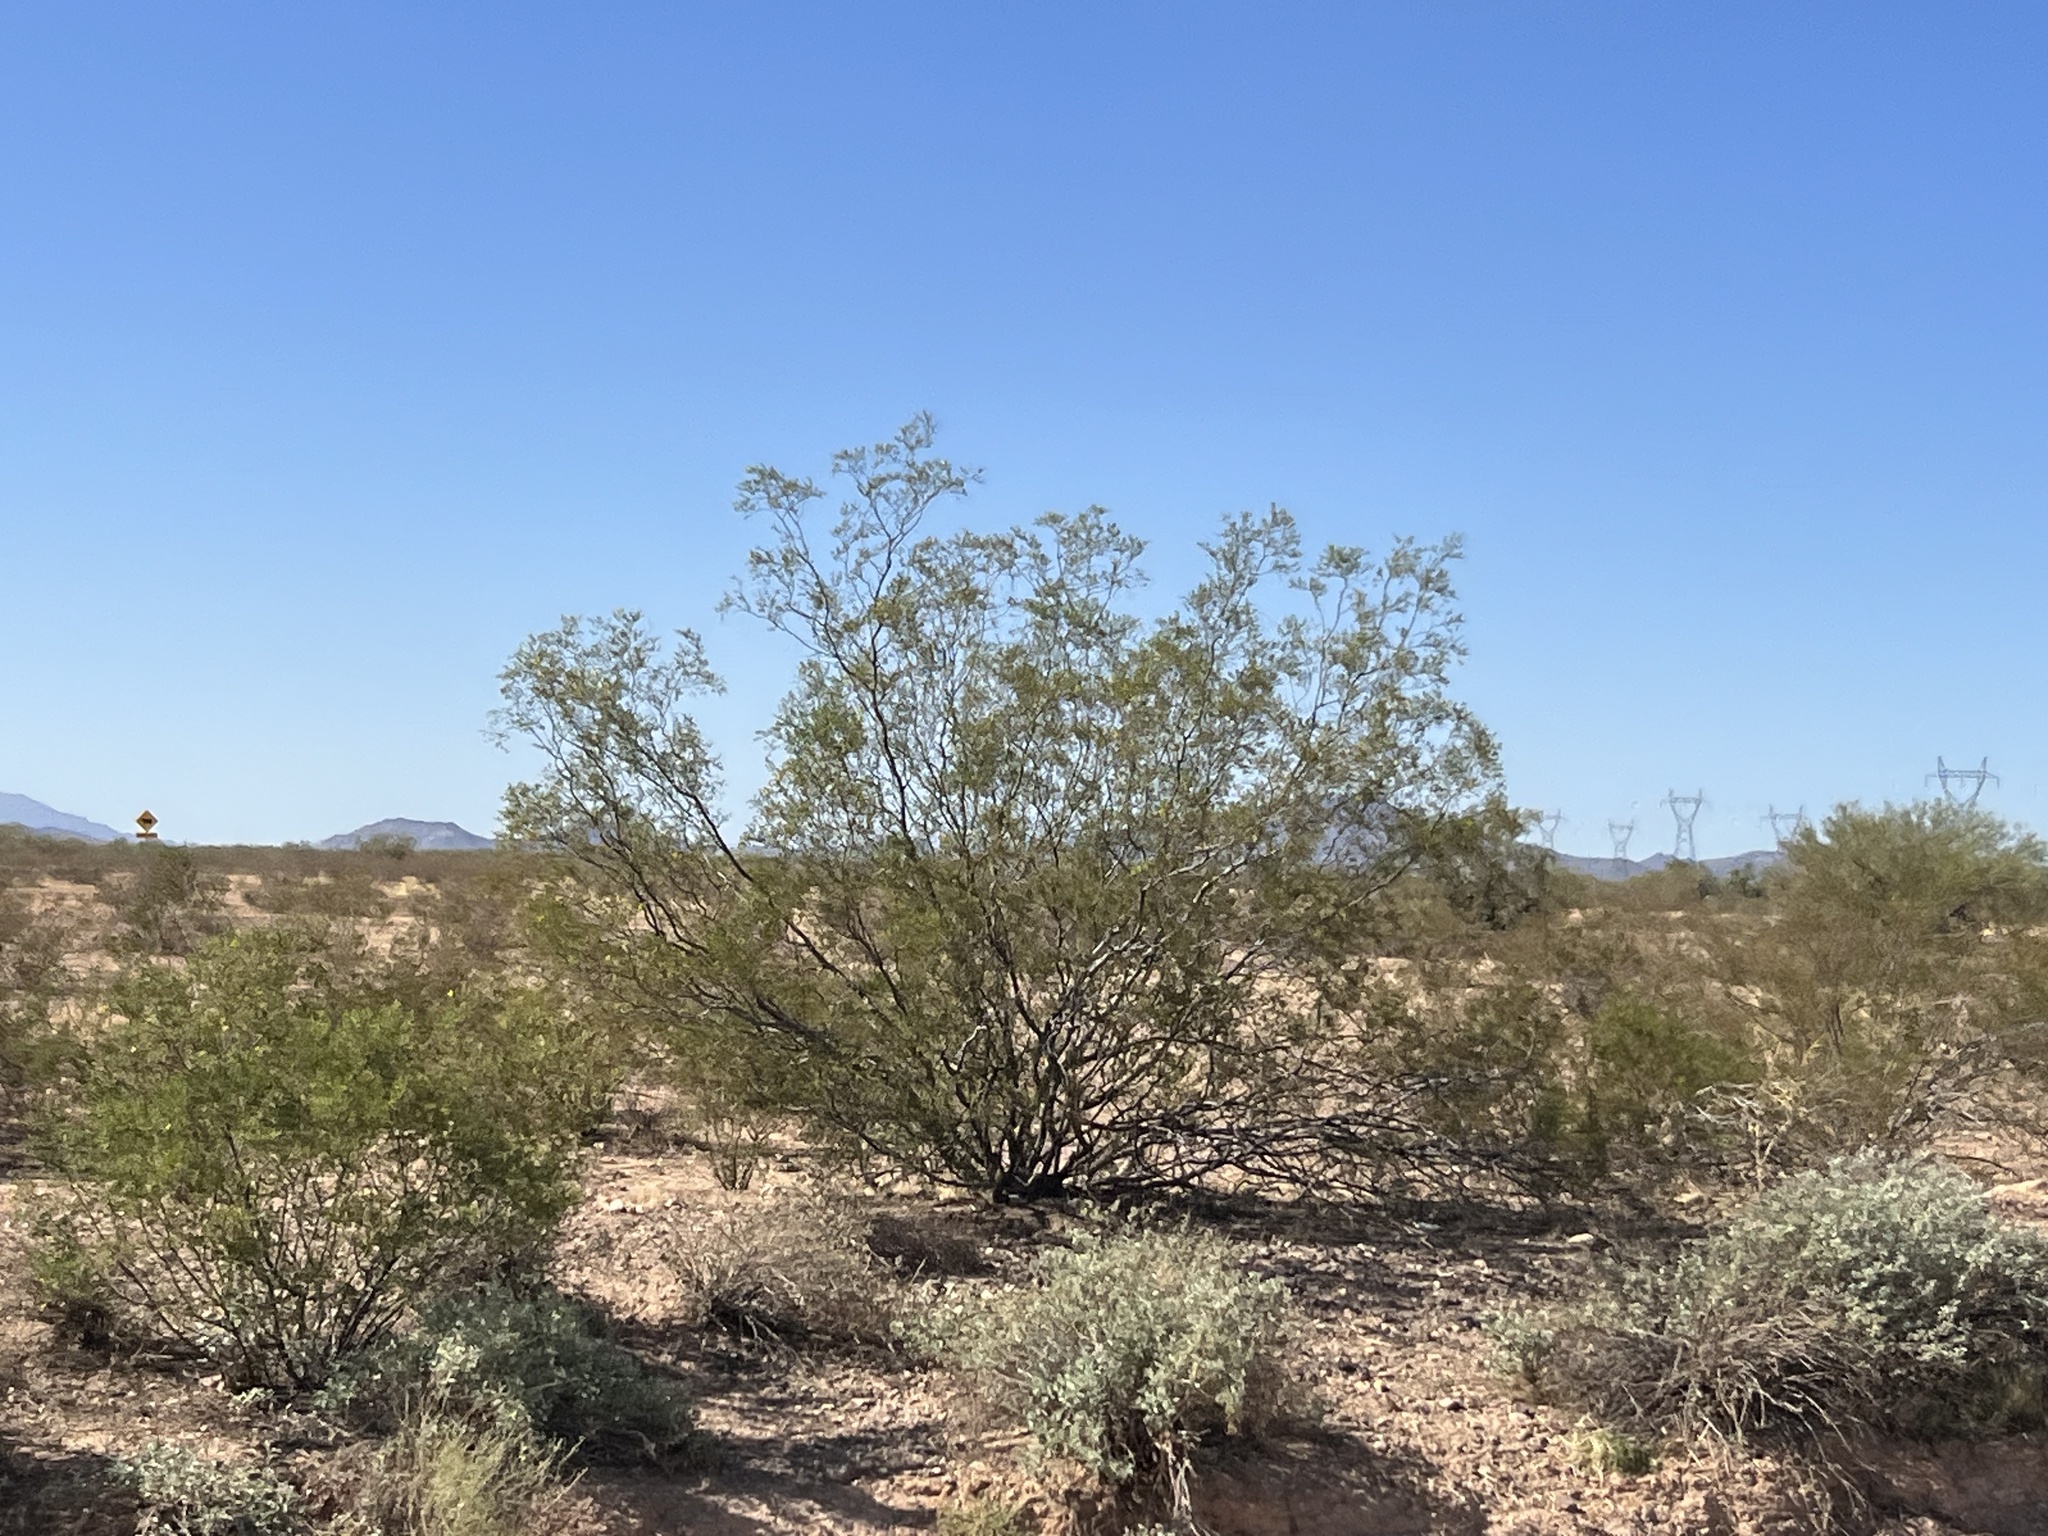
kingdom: Plantae
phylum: Tracheophyta
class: Magnoliopsida
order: Zygophyllales
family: Zygophyllaceae
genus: Larrea
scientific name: Larrea tridentata
